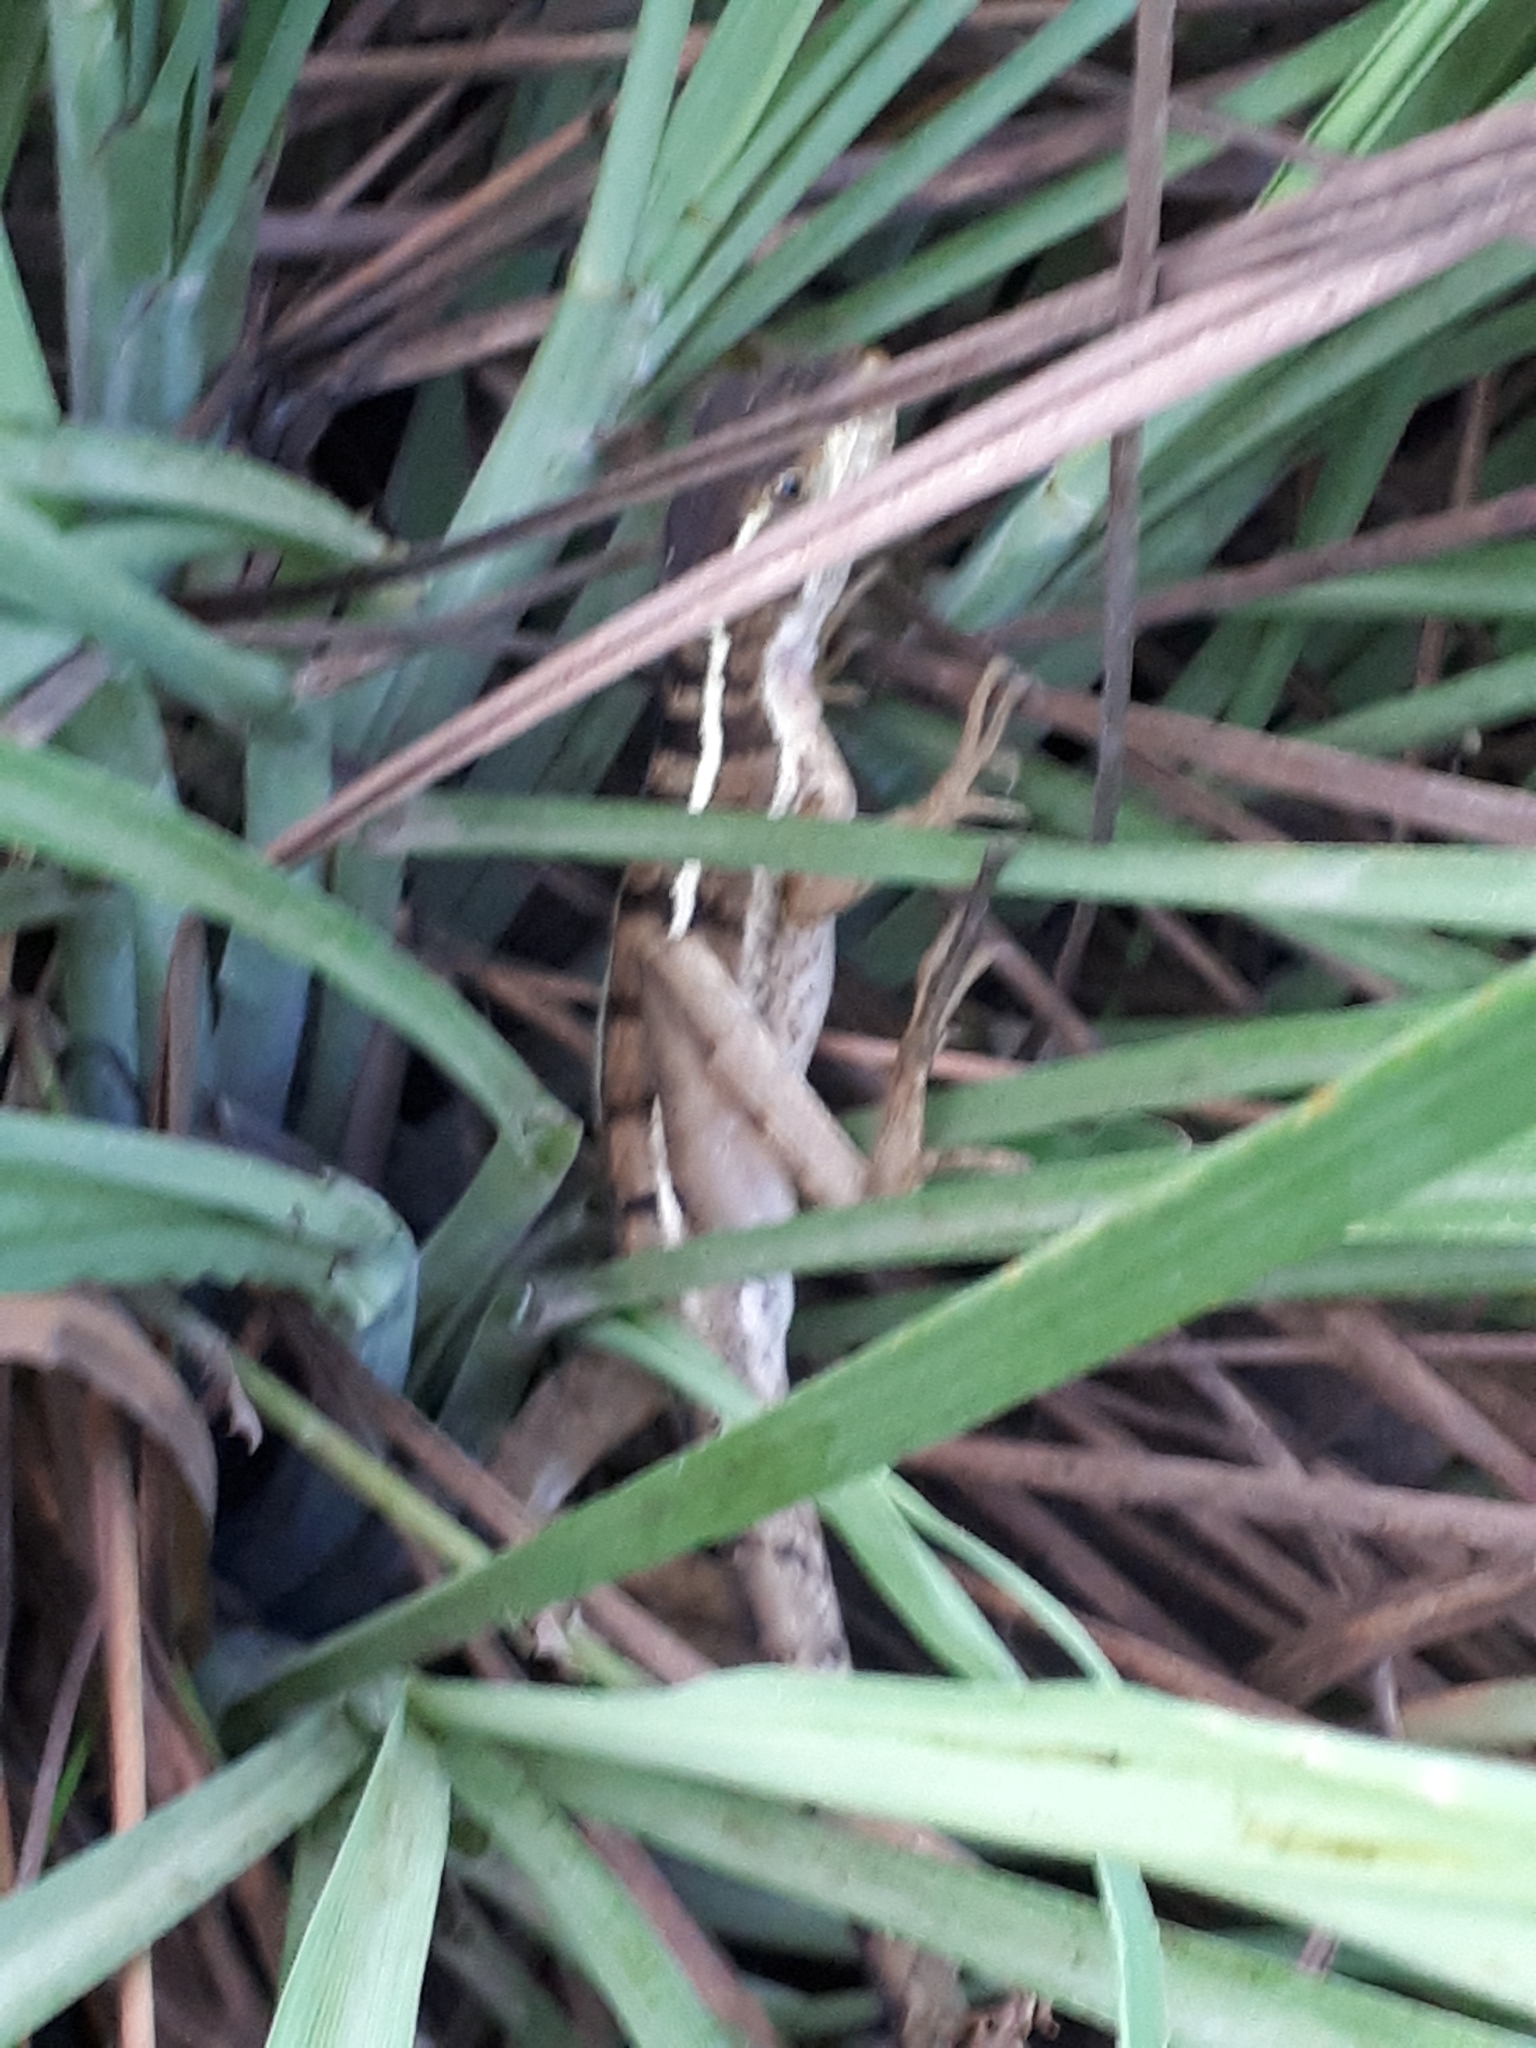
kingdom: Animalia
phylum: Chordata
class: Squamata
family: Corytophanidae
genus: Basiliscus
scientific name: Basiliscus vittatus
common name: Brown basilisk
